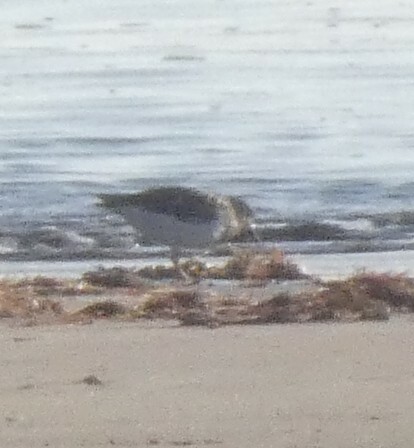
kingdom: Animalia
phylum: Chordata
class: Aves
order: Charadriiformes
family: Scolopacidae
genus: Arenaria
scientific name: Arenaria interpres
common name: Ruddy turnstone
